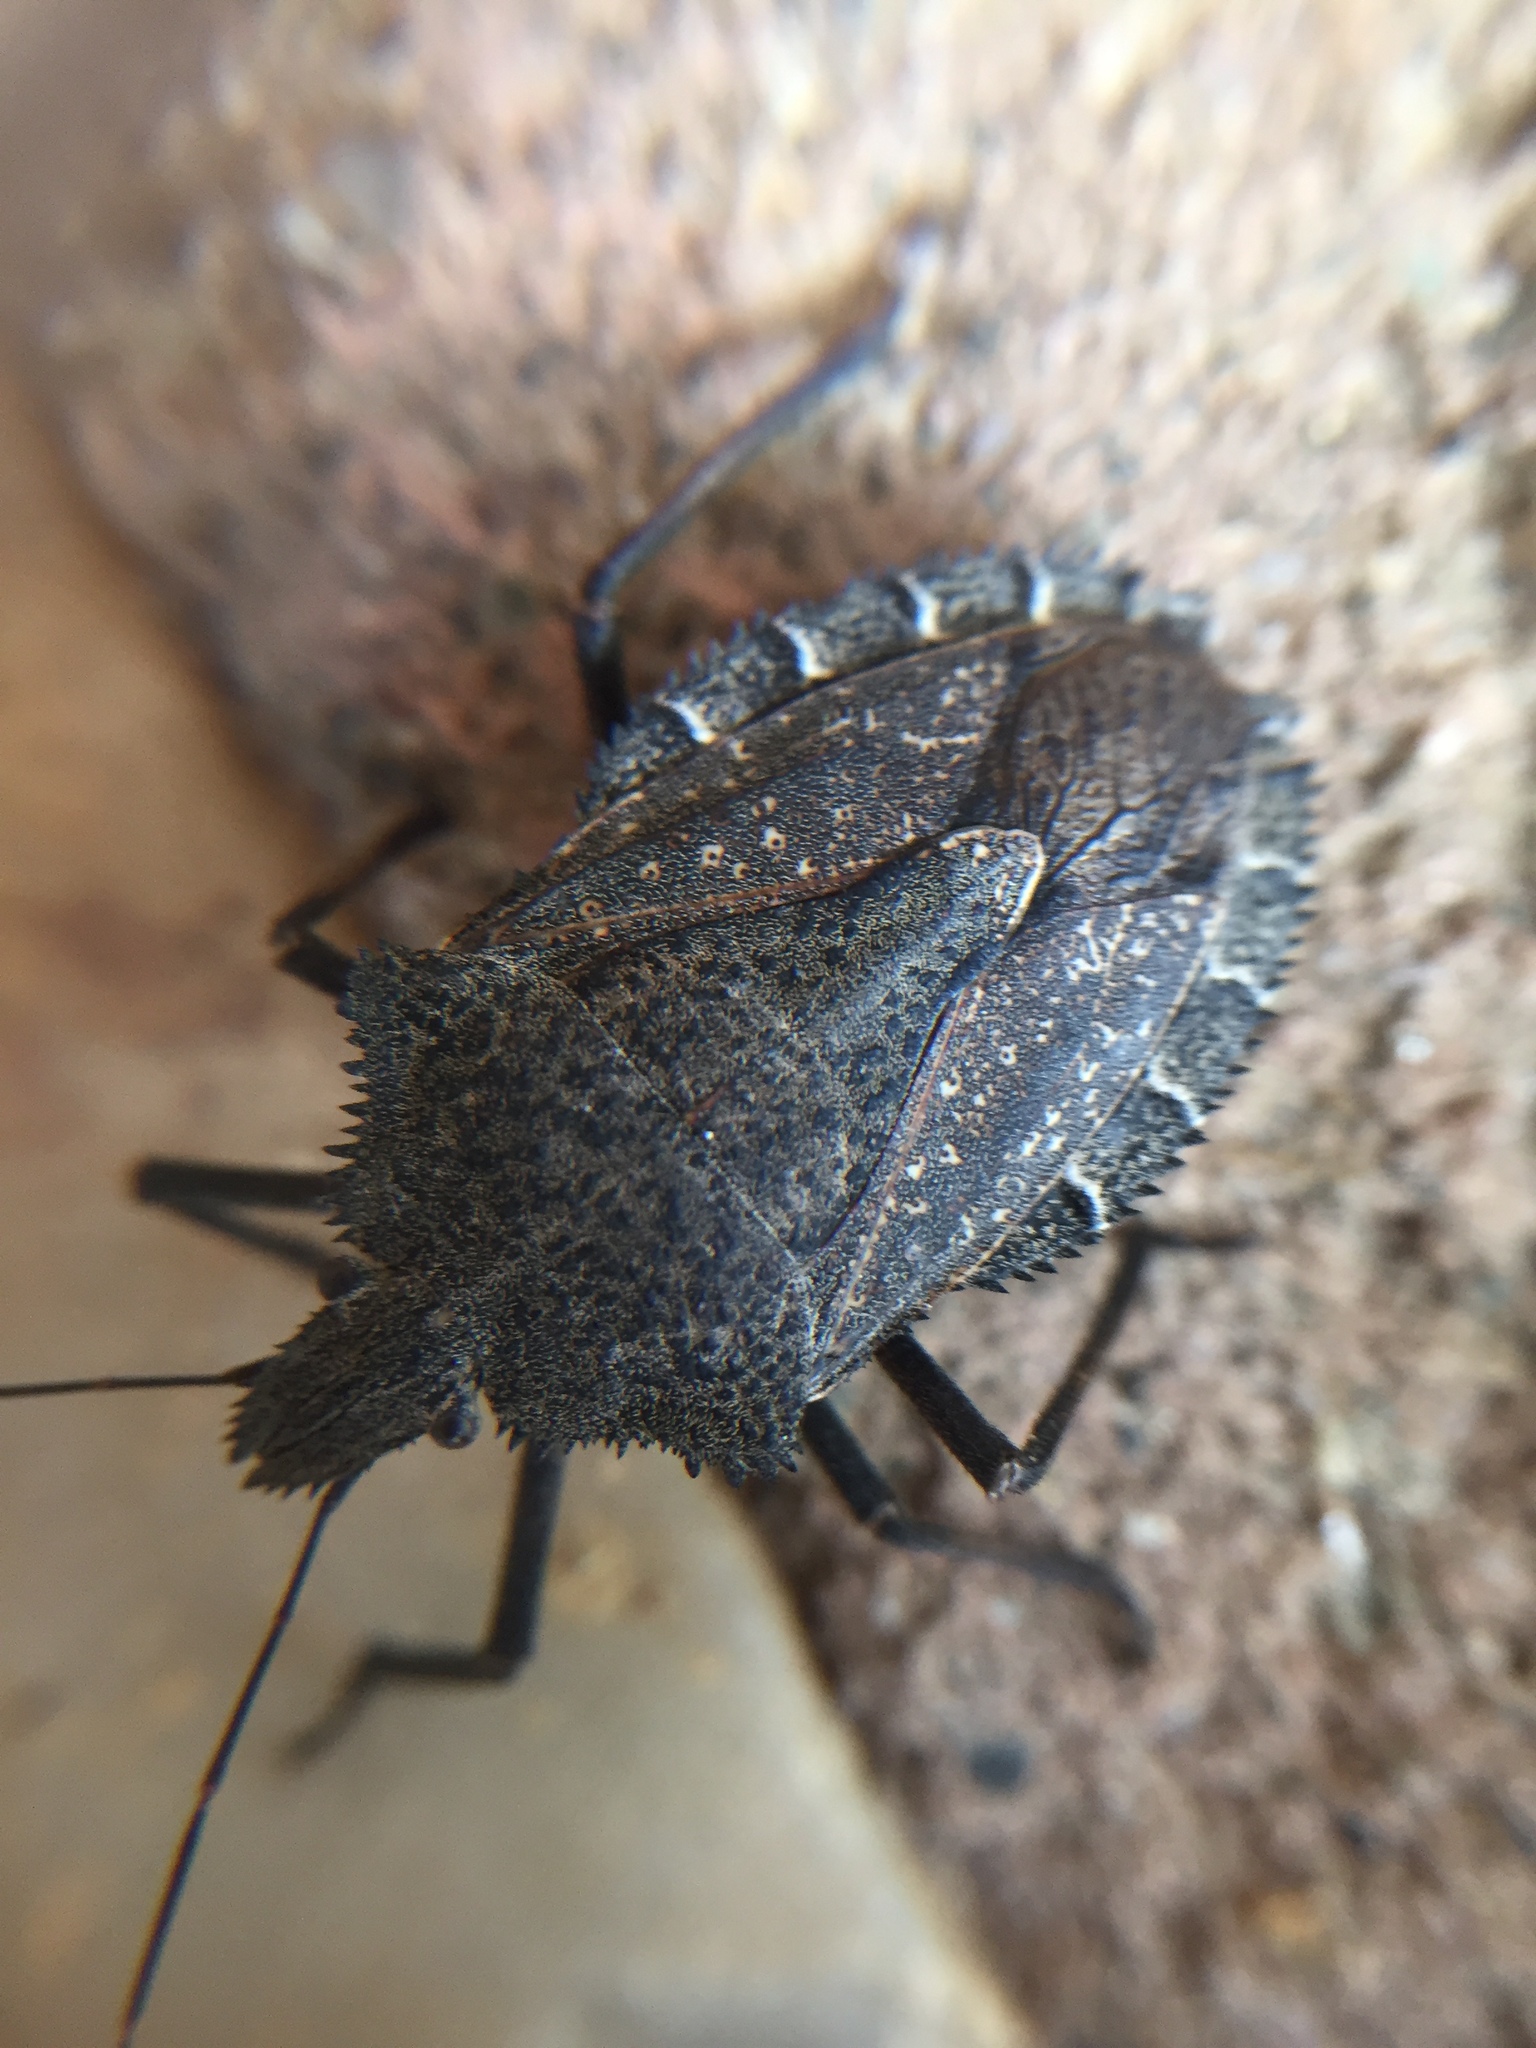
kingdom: Animalia
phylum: Arthropoda
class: Insecta
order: Hemiptera
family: Pentatomidae
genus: Mustha
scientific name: Mustha spinosula
